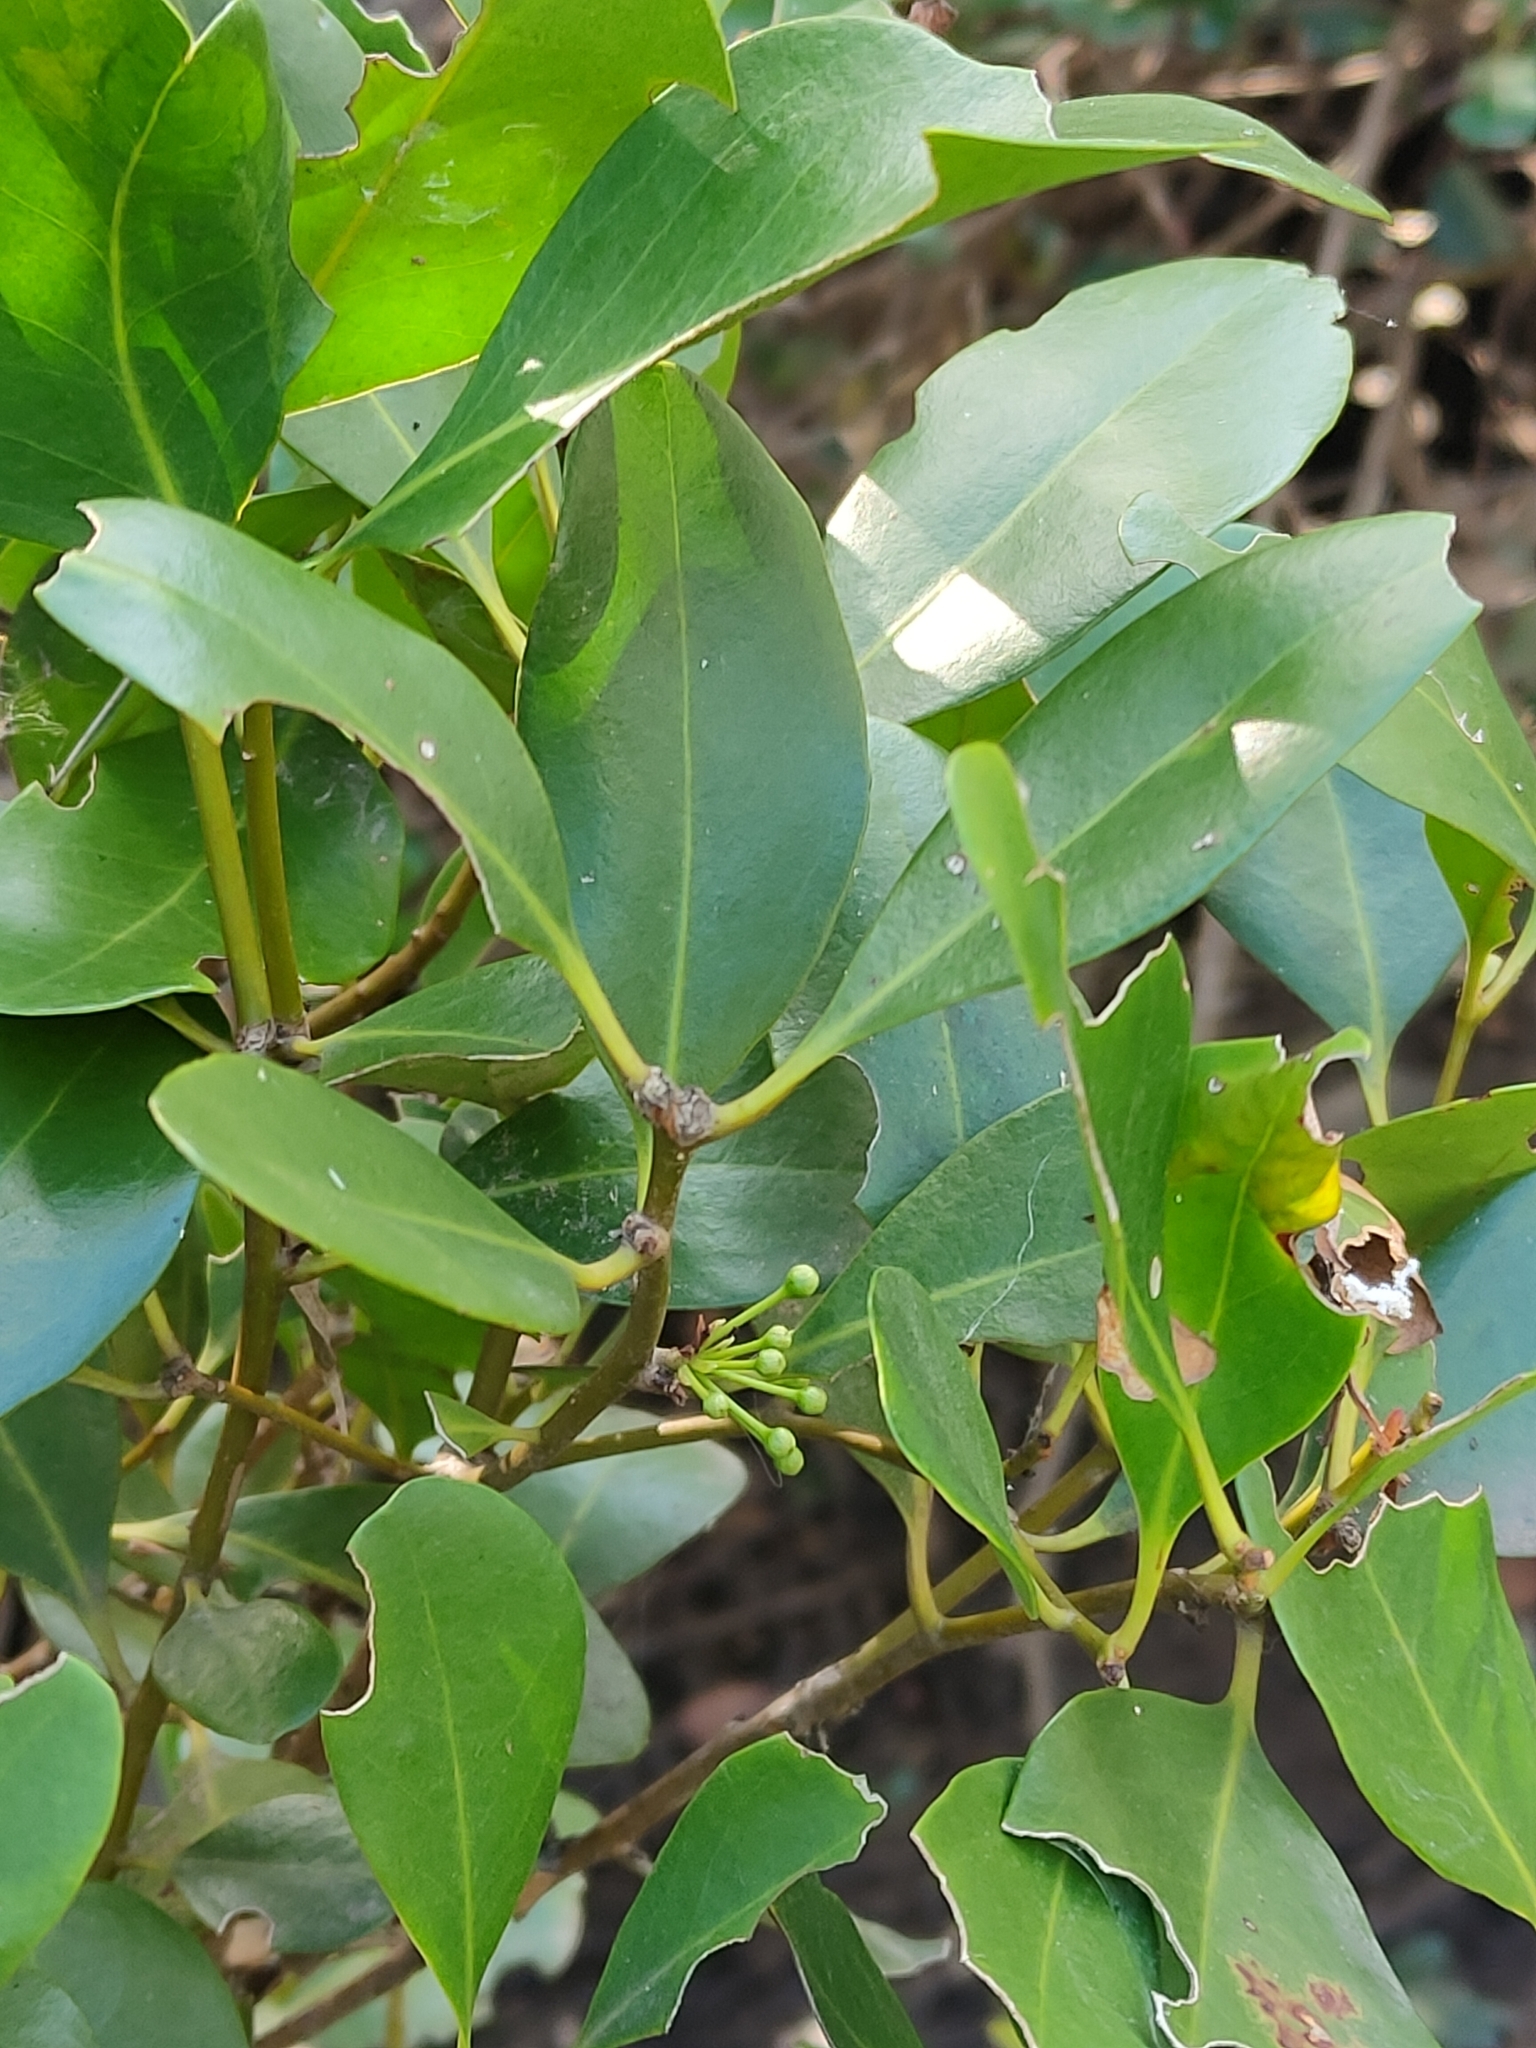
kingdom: Plantae
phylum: Tracheophyta
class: Magnoliopsida
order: Ericales
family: Primulaceae
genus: Aegiceras
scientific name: Aegiceras corniculatum
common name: River mangrove
